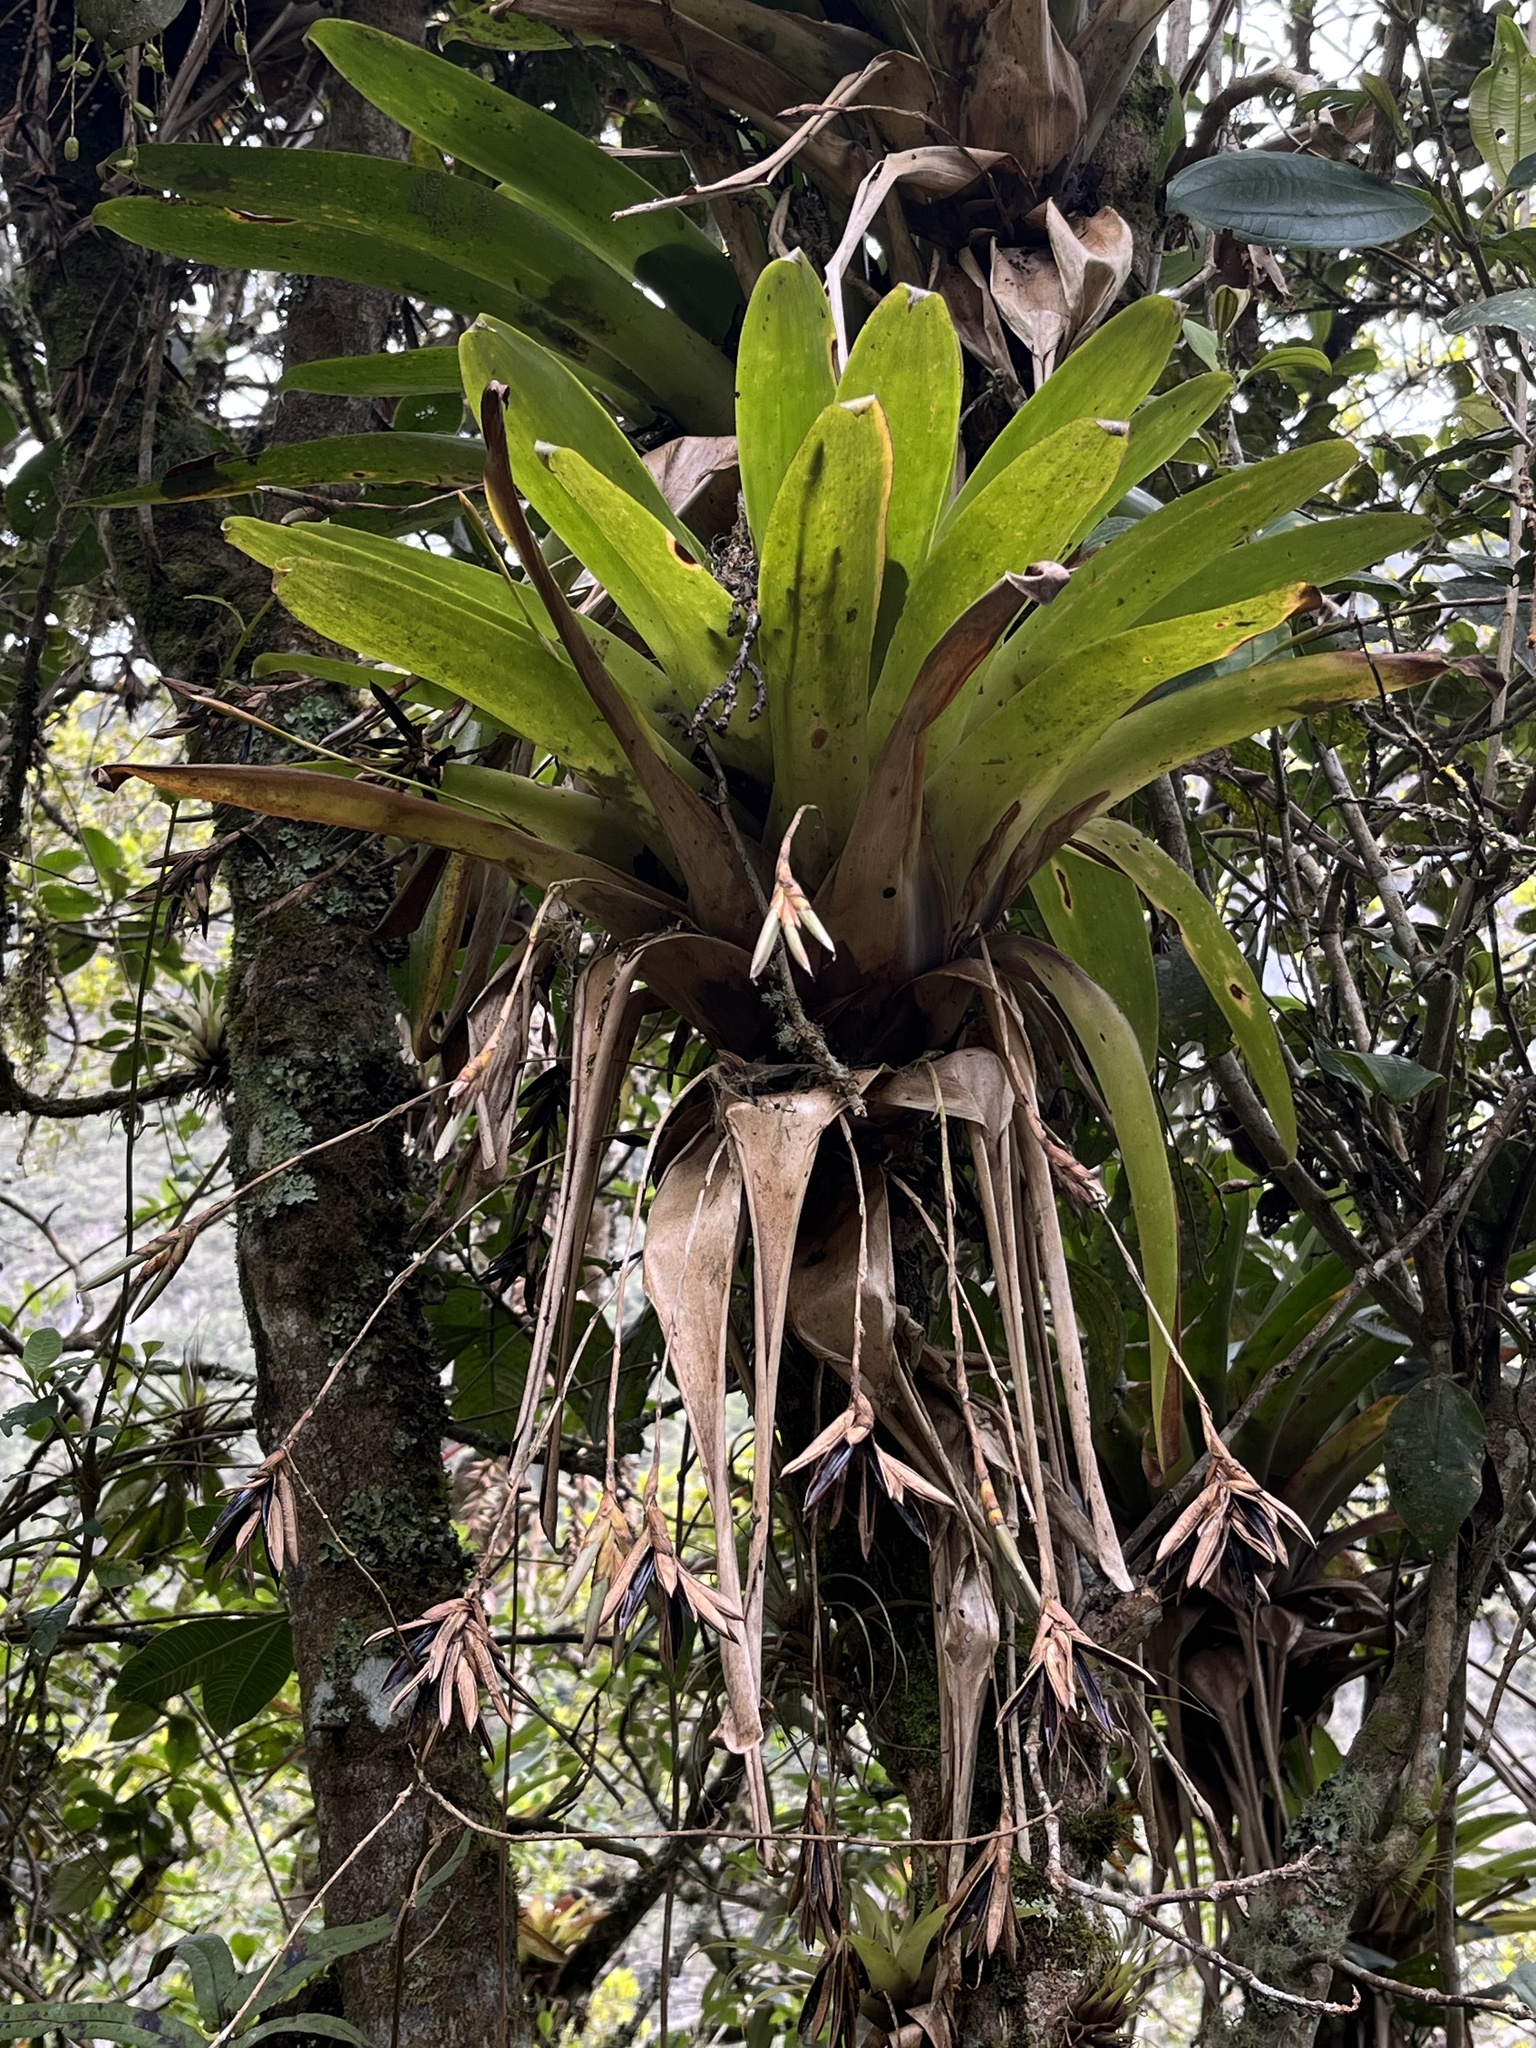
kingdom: Plantae
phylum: Tracheophyta
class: Liliopsida
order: Poales
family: Bromeliaceae
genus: Tillandsia
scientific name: Tillandsia complanata
